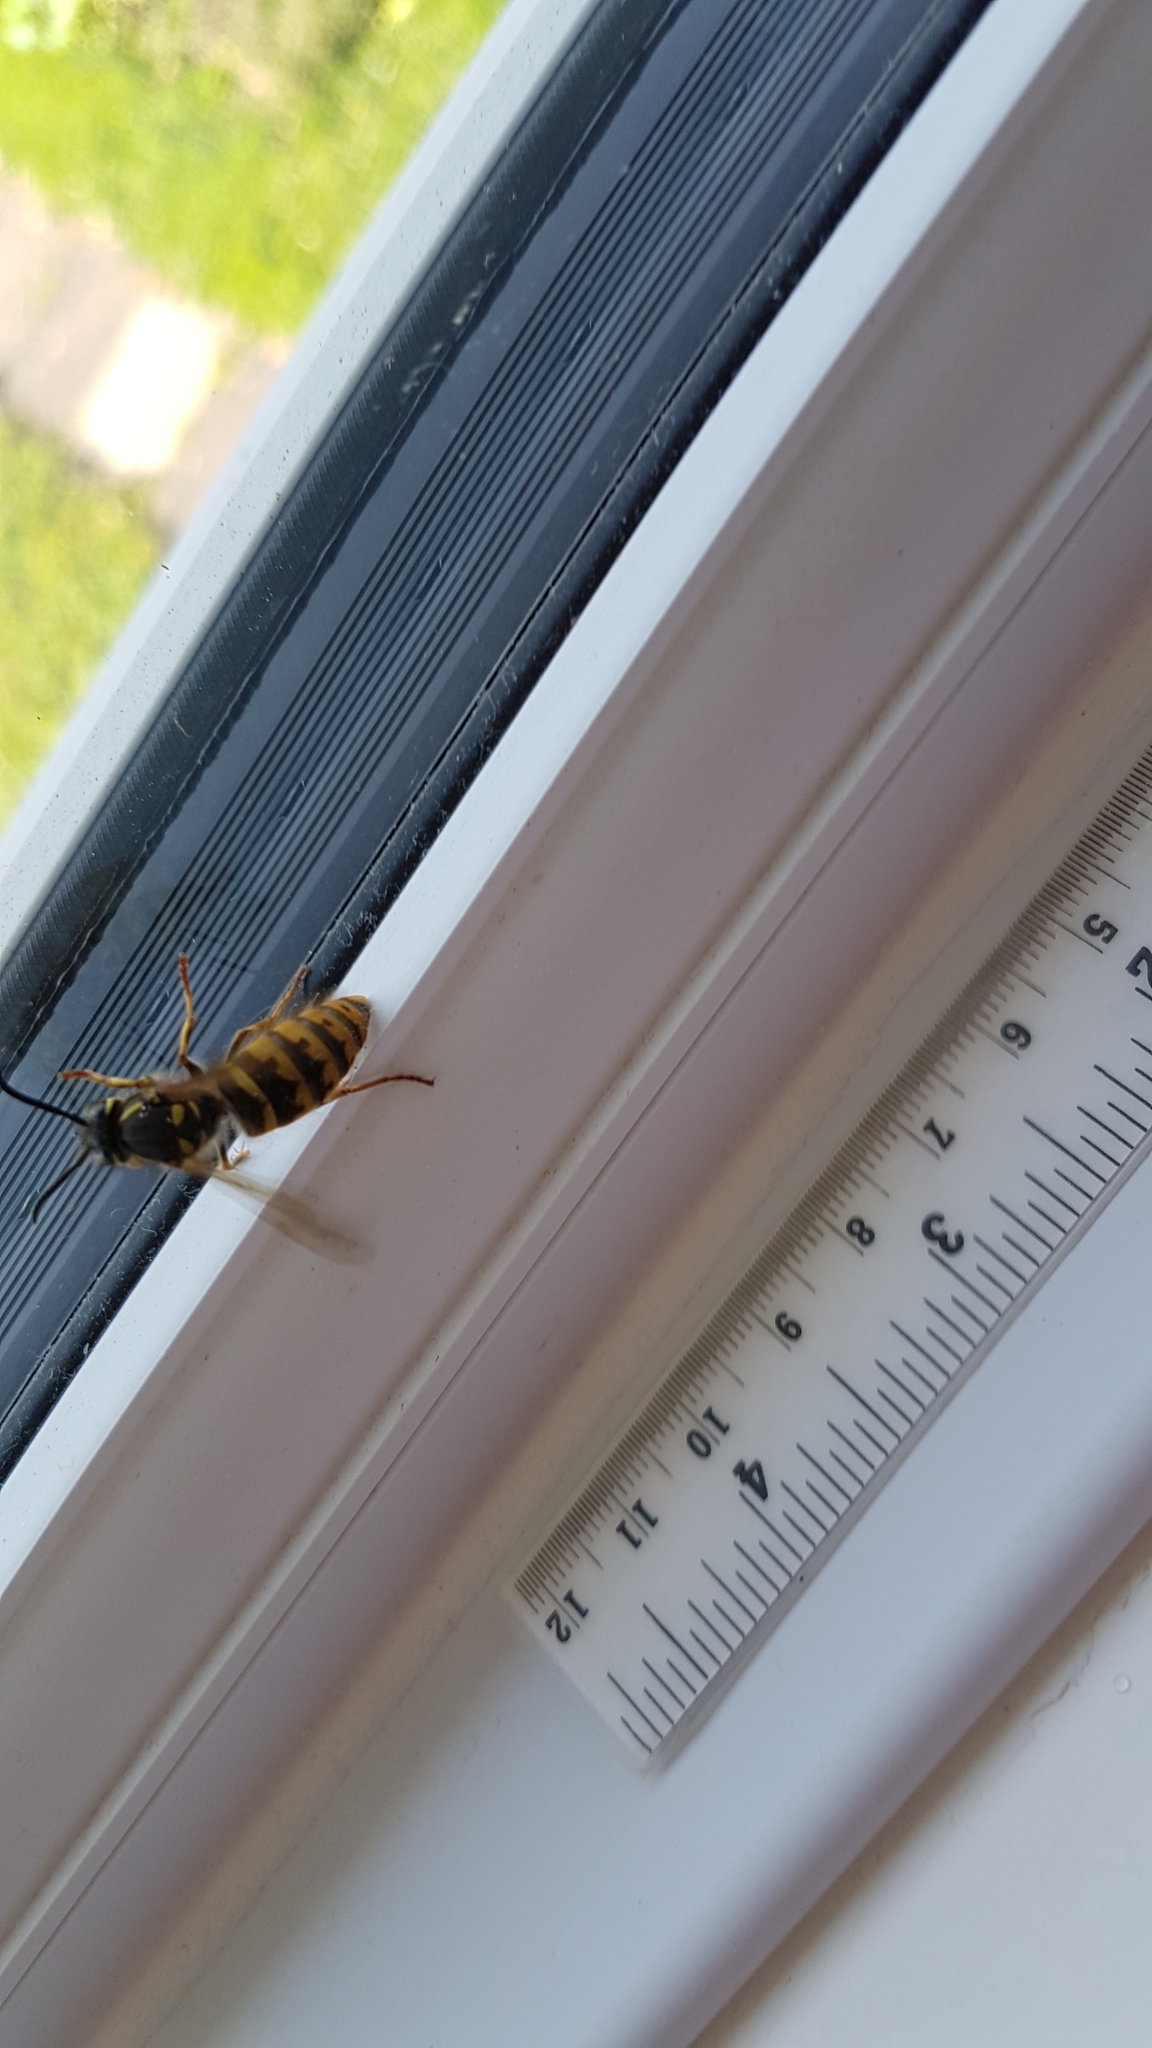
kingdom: Animalia
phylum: Arthropoda
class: Insecta
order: Hymenoptera
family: Vespidae
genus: Vespula
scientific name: Vespula vulgaris
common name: Common wasp
